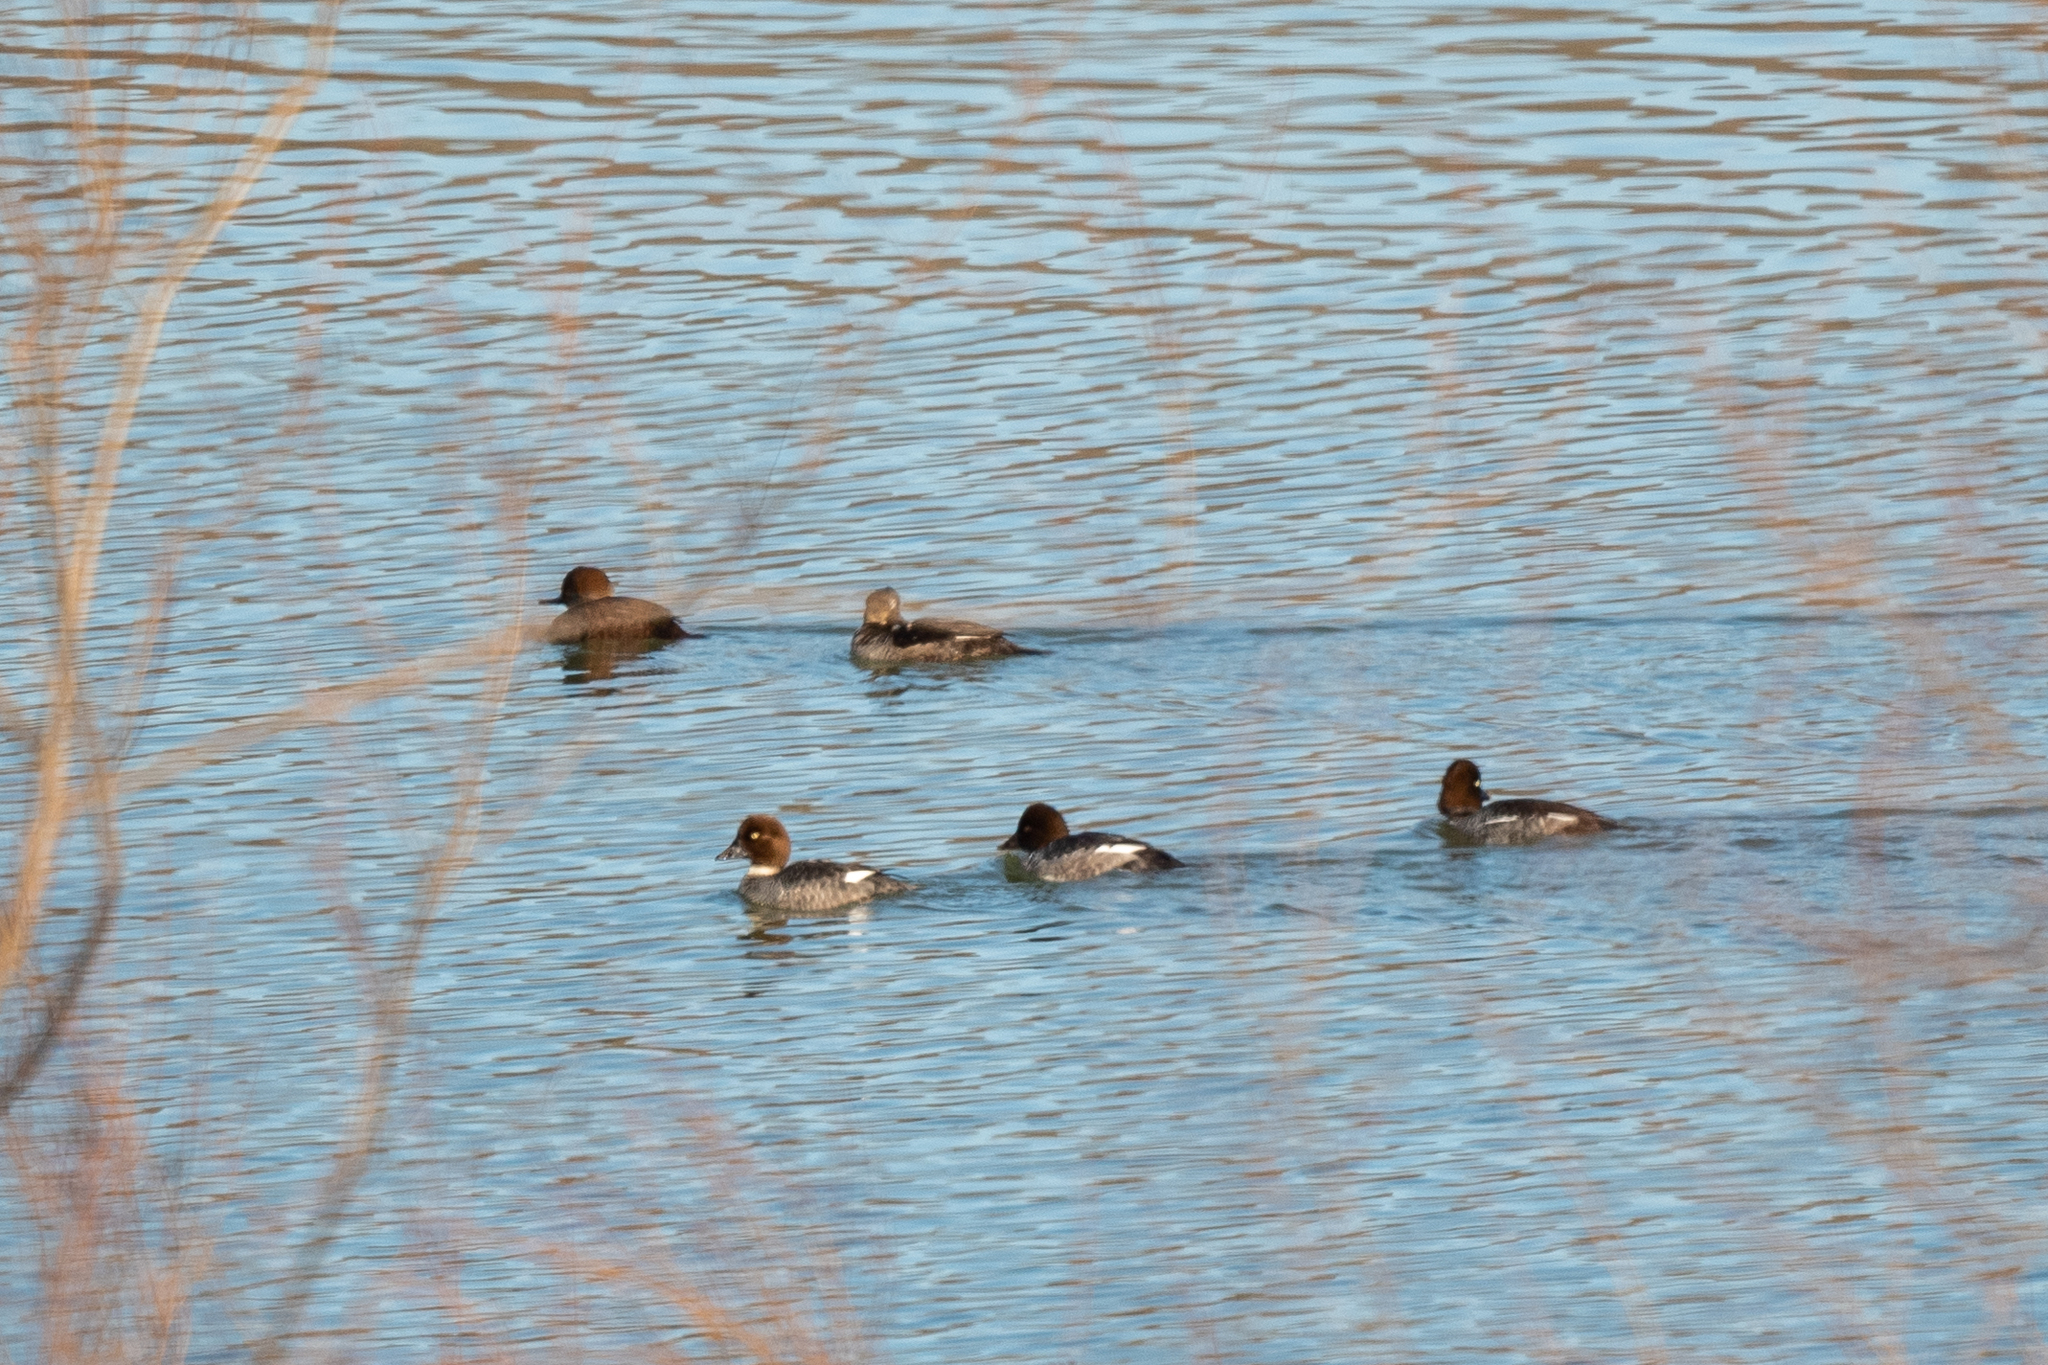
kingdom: Animalia
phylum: Chordata
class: Aves
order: Anseriformes
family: Anatidae
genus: Bucephala
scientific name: Bucephala clangula
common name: Common goldeneye
